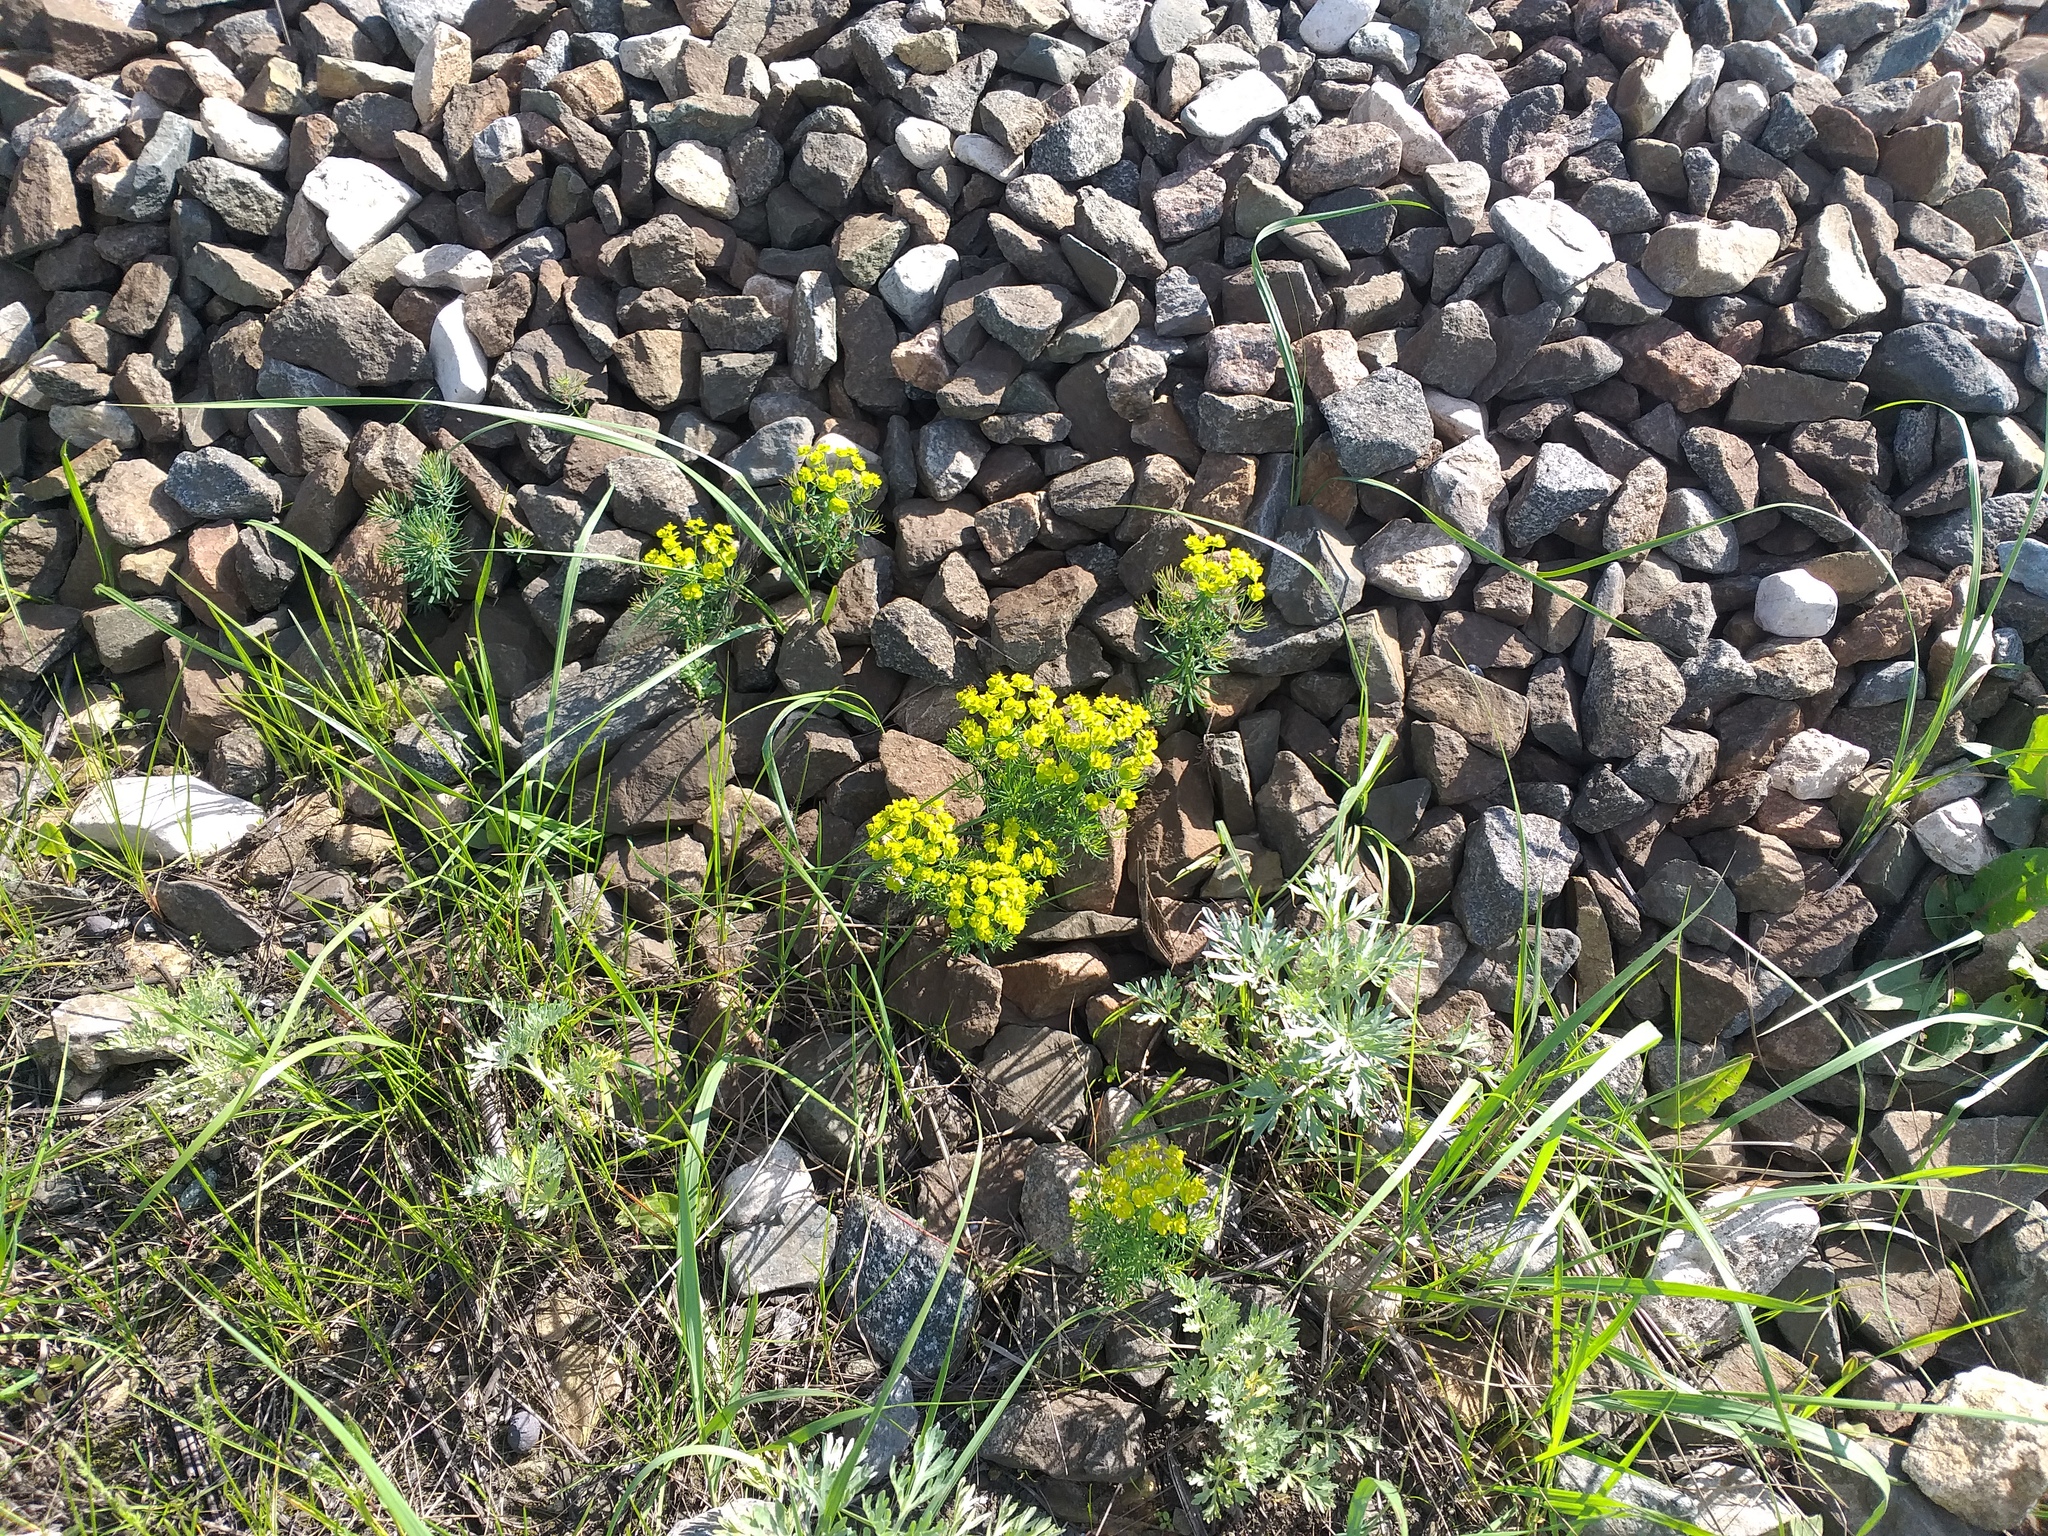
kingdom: Plantae
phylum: Tracheophyta
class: Magnoliopsida
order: Malpighiales
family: Euphorbiaceae
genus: Euphorbia
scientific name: Euphorbia cyparissias
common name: Cypress spurge
